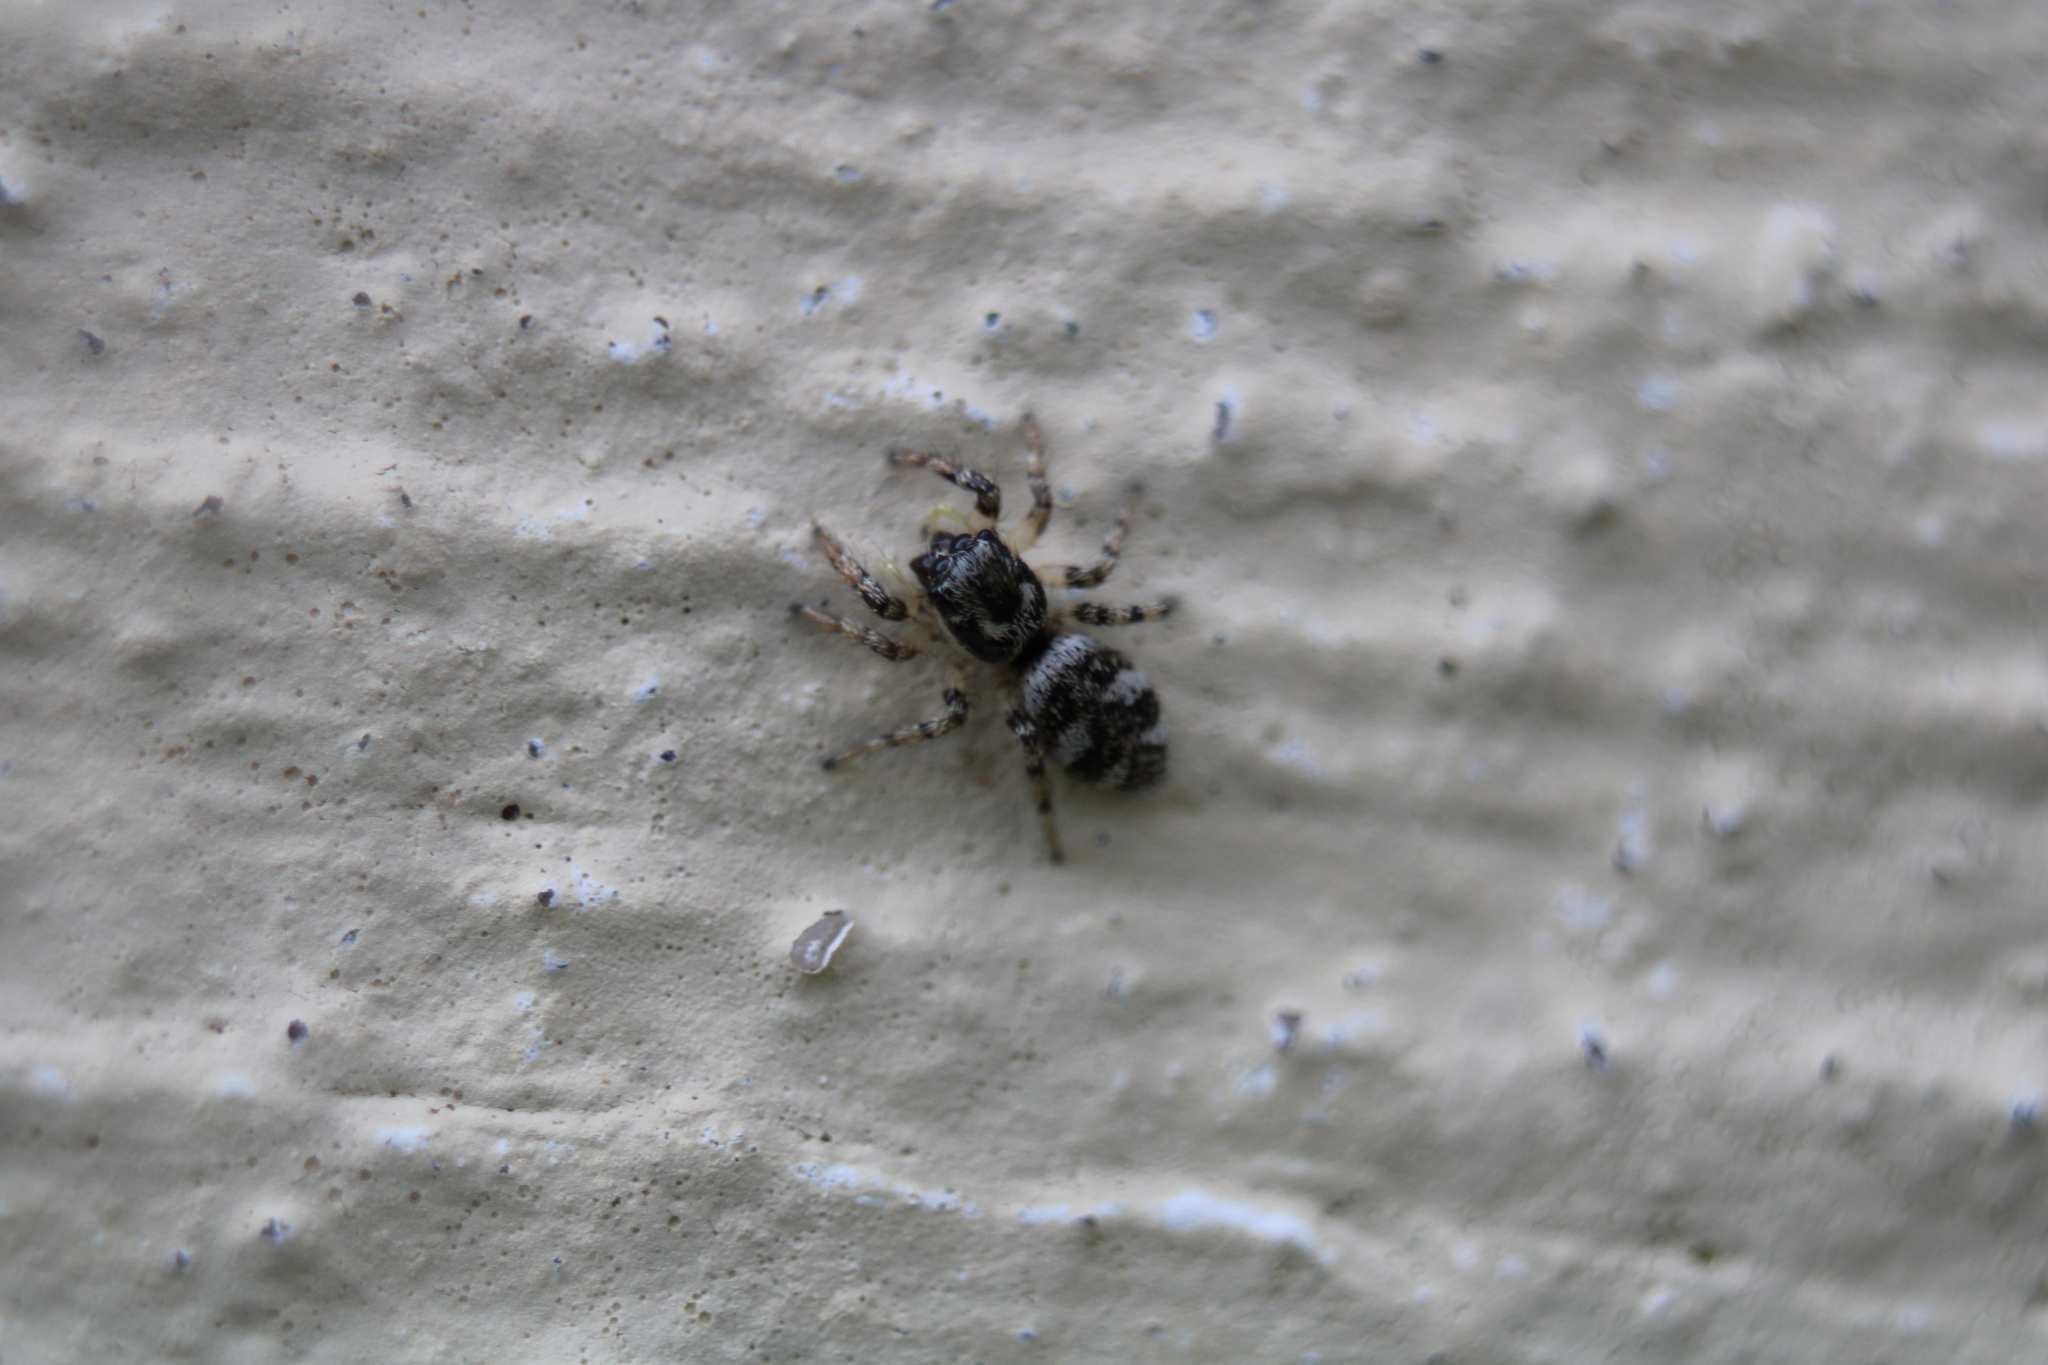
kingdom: Animalia
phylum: Arthropoda
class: Arachnida
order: Araneae
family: Salticidae
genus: Salticus
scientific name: Salticus scenicus
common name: Zebra jumper
